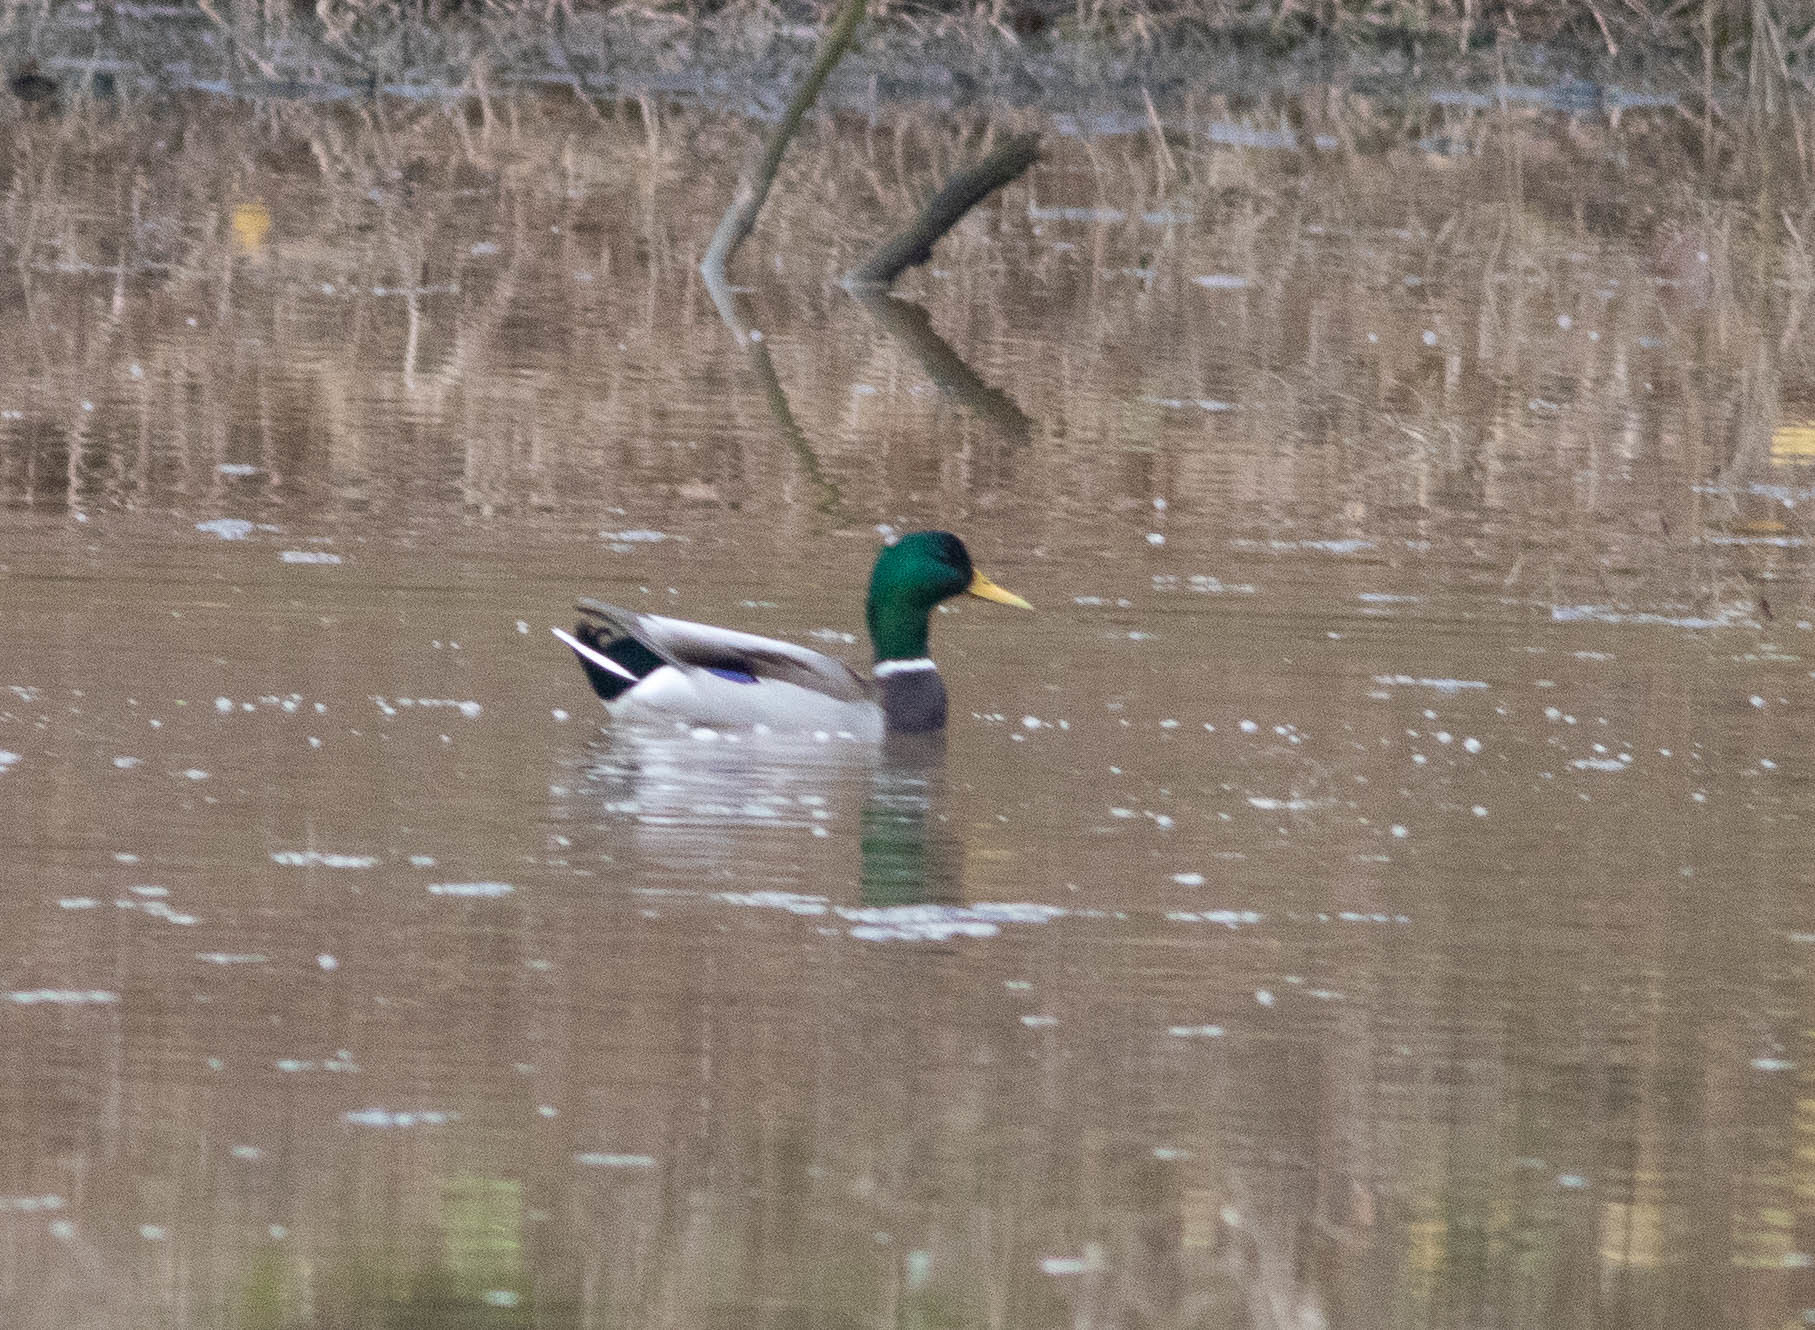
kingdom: Animalia
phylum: Chordata
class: Aves
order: Anseriformes
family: Anatidae
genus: Anas
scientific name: Anas platyrhynchos
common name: Mallard
